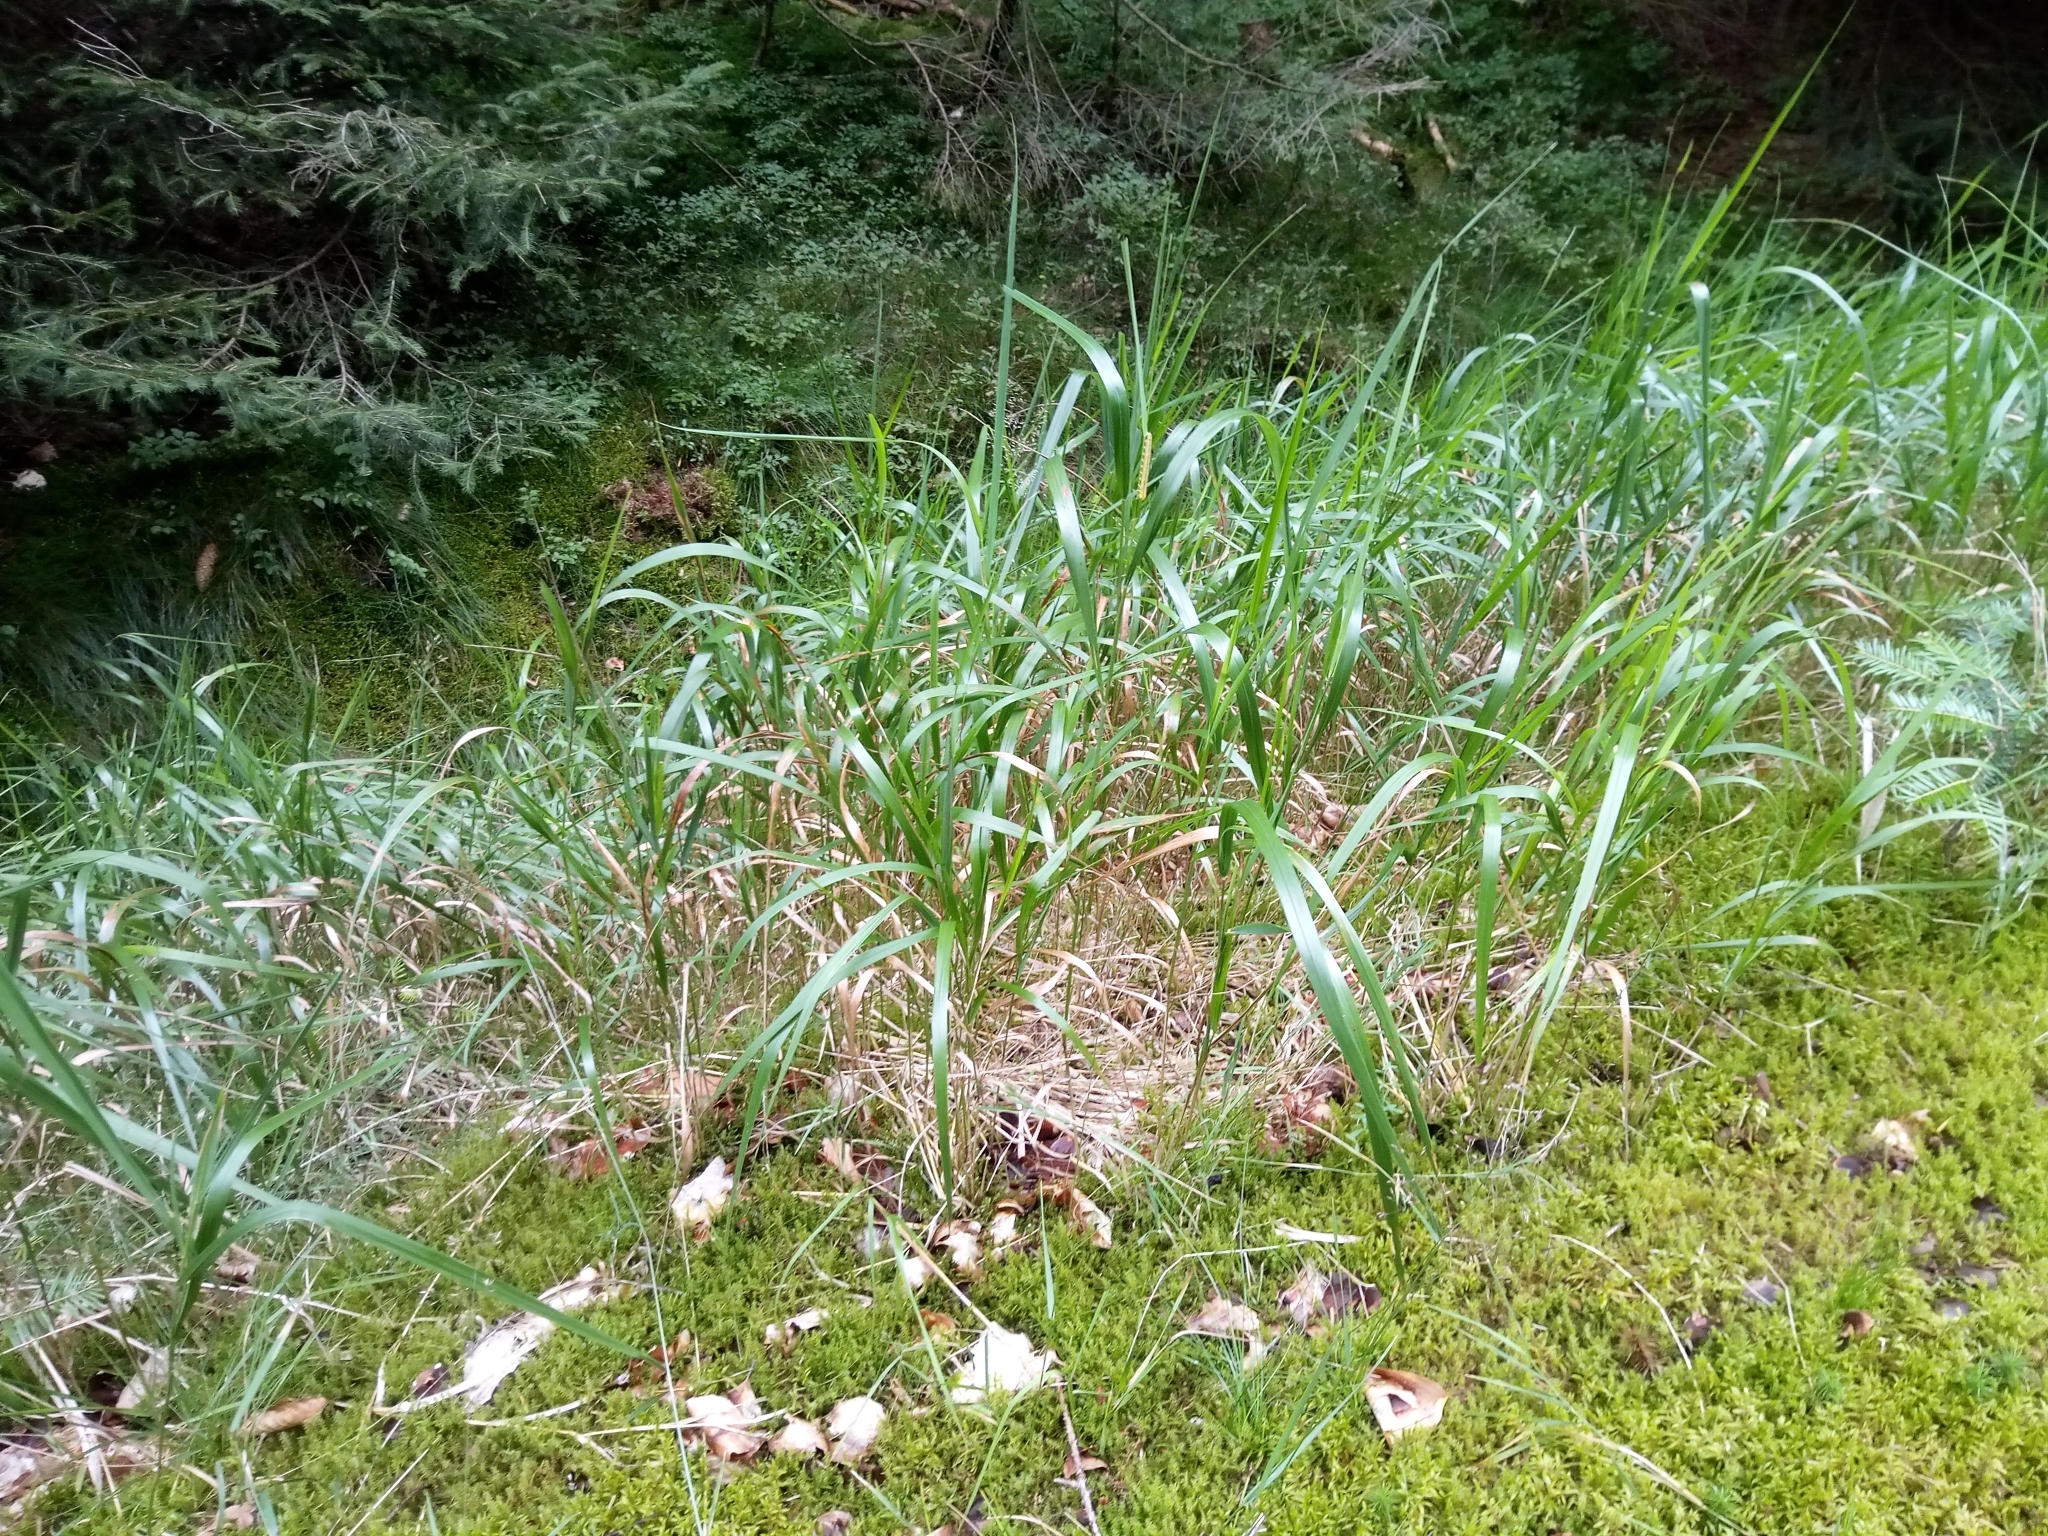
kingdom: Plantae
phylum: Tracheophyta
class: Liliopsida
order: Poales
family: Poaceae
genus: Calamagrostis
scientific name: Calamagrostis villosa
